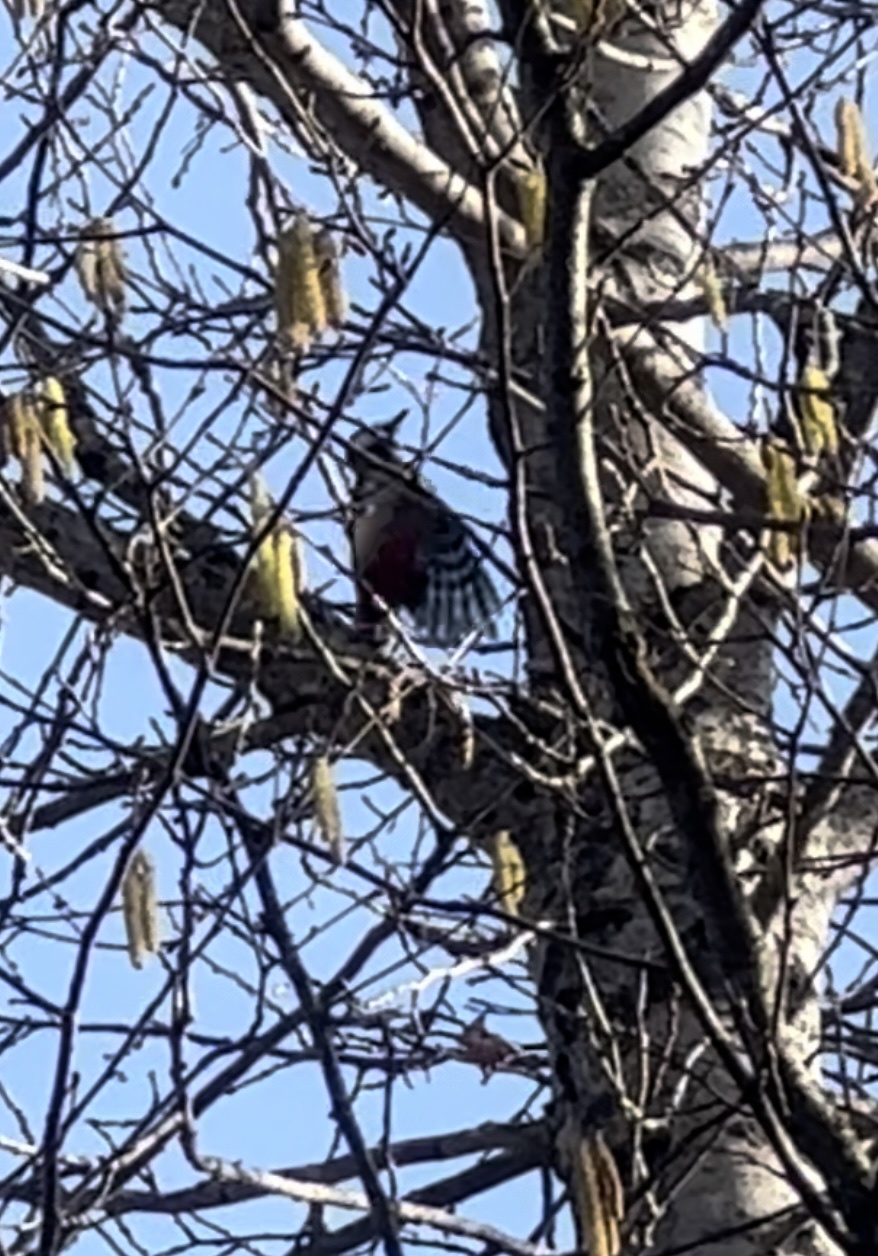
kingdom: Animalia
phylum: Chordata
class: Aves
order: Piciformes
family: Picidae
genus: Dendrocopos
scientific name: Dendrocopos major
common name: Great spotted woodpecker
